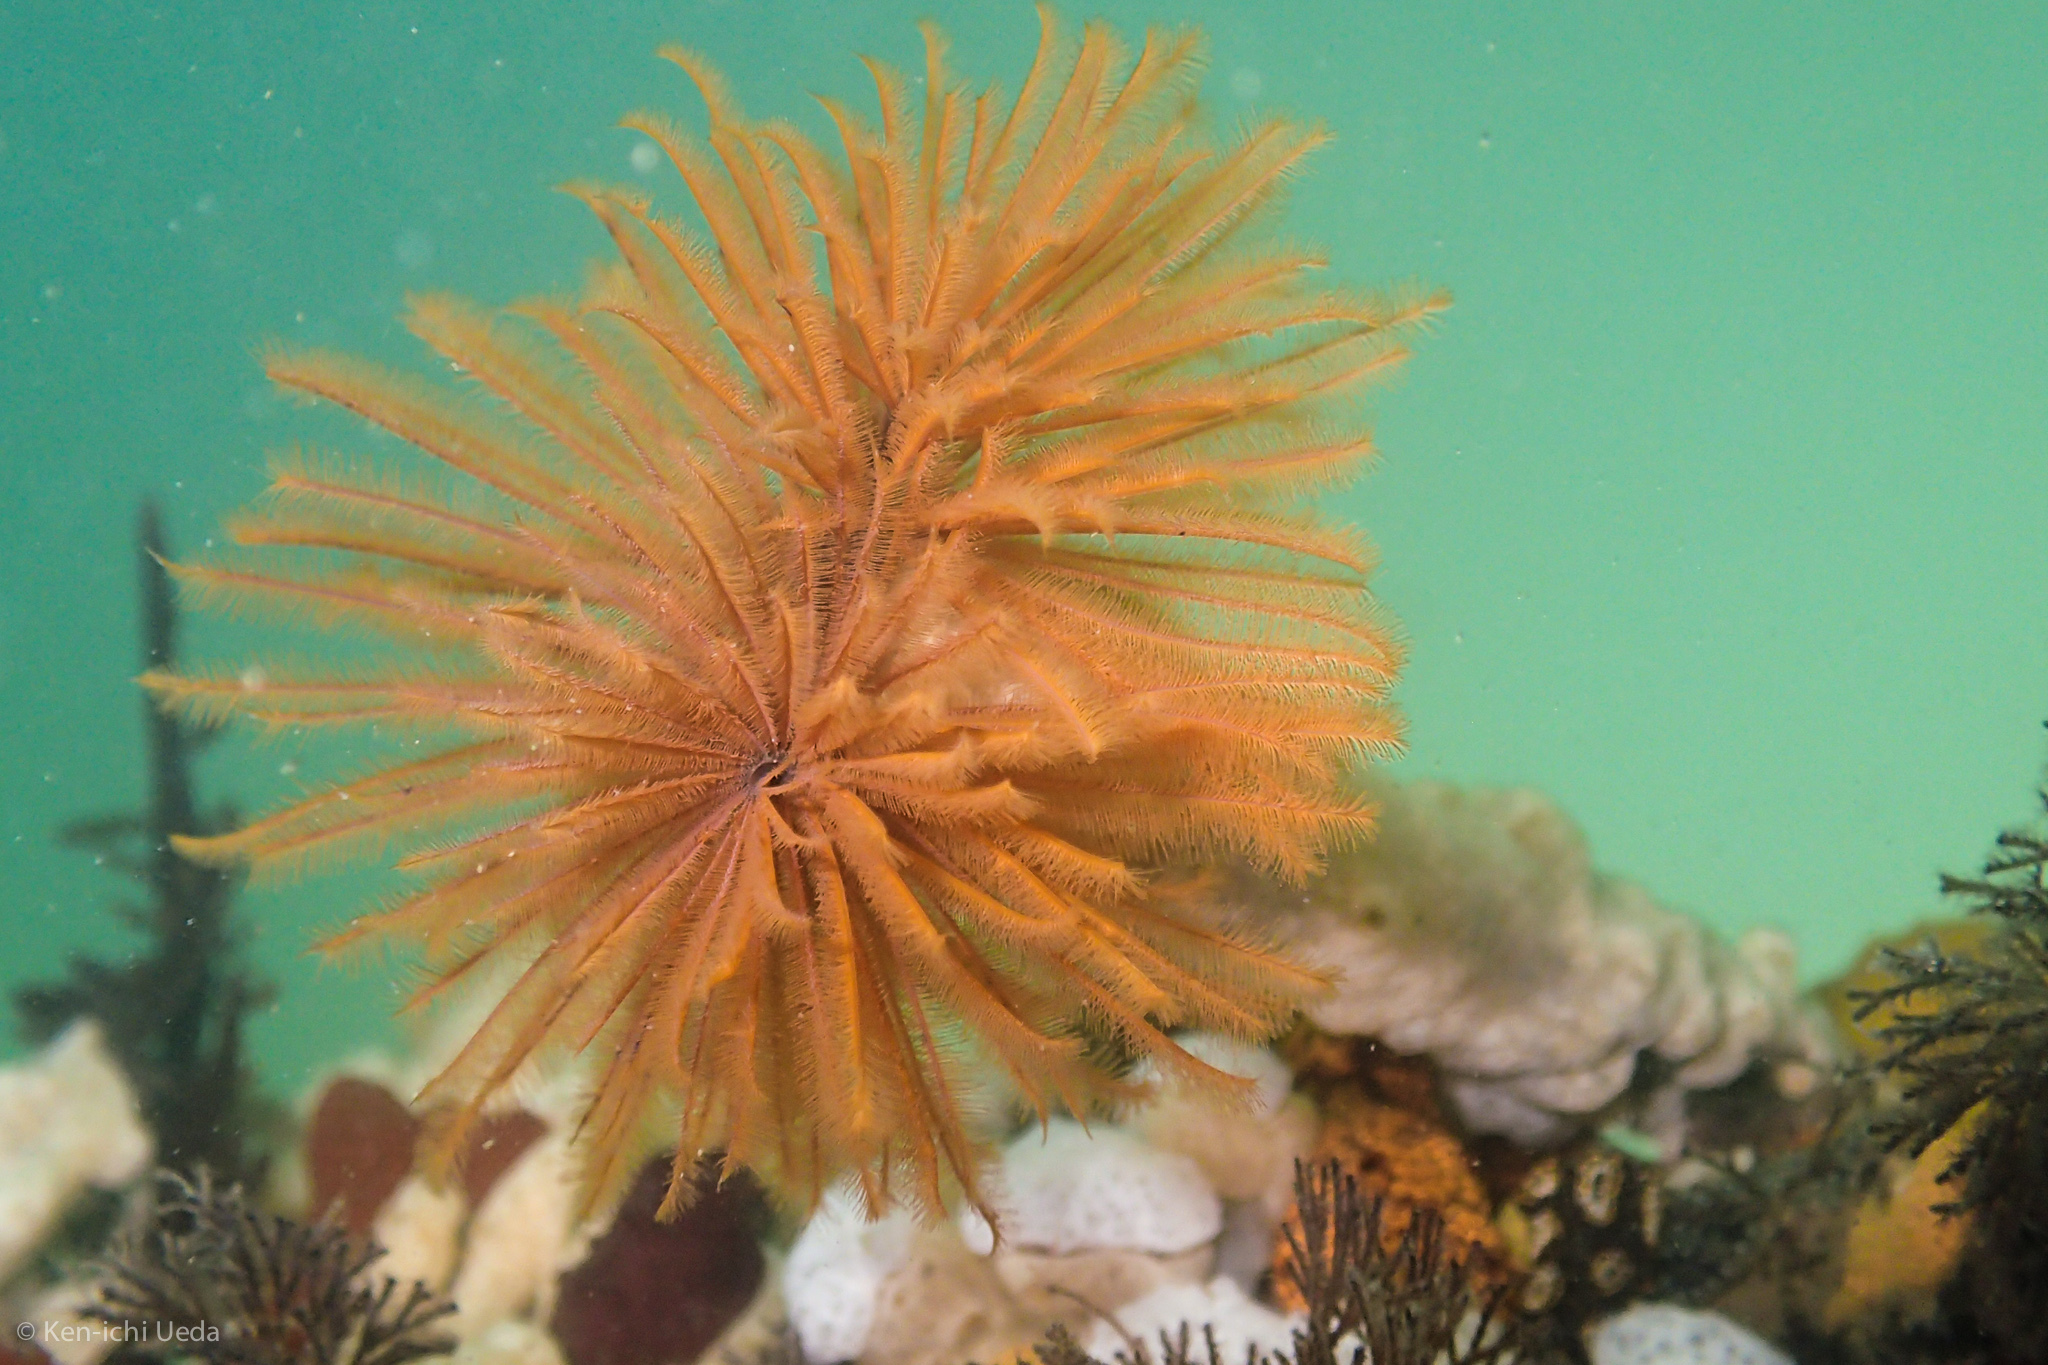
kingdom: Animalia
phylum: Annelida
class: Polychaeta
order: Sabellida
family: Sabellidae
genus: Eudistylia
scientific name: Eudistylia polymorpha
